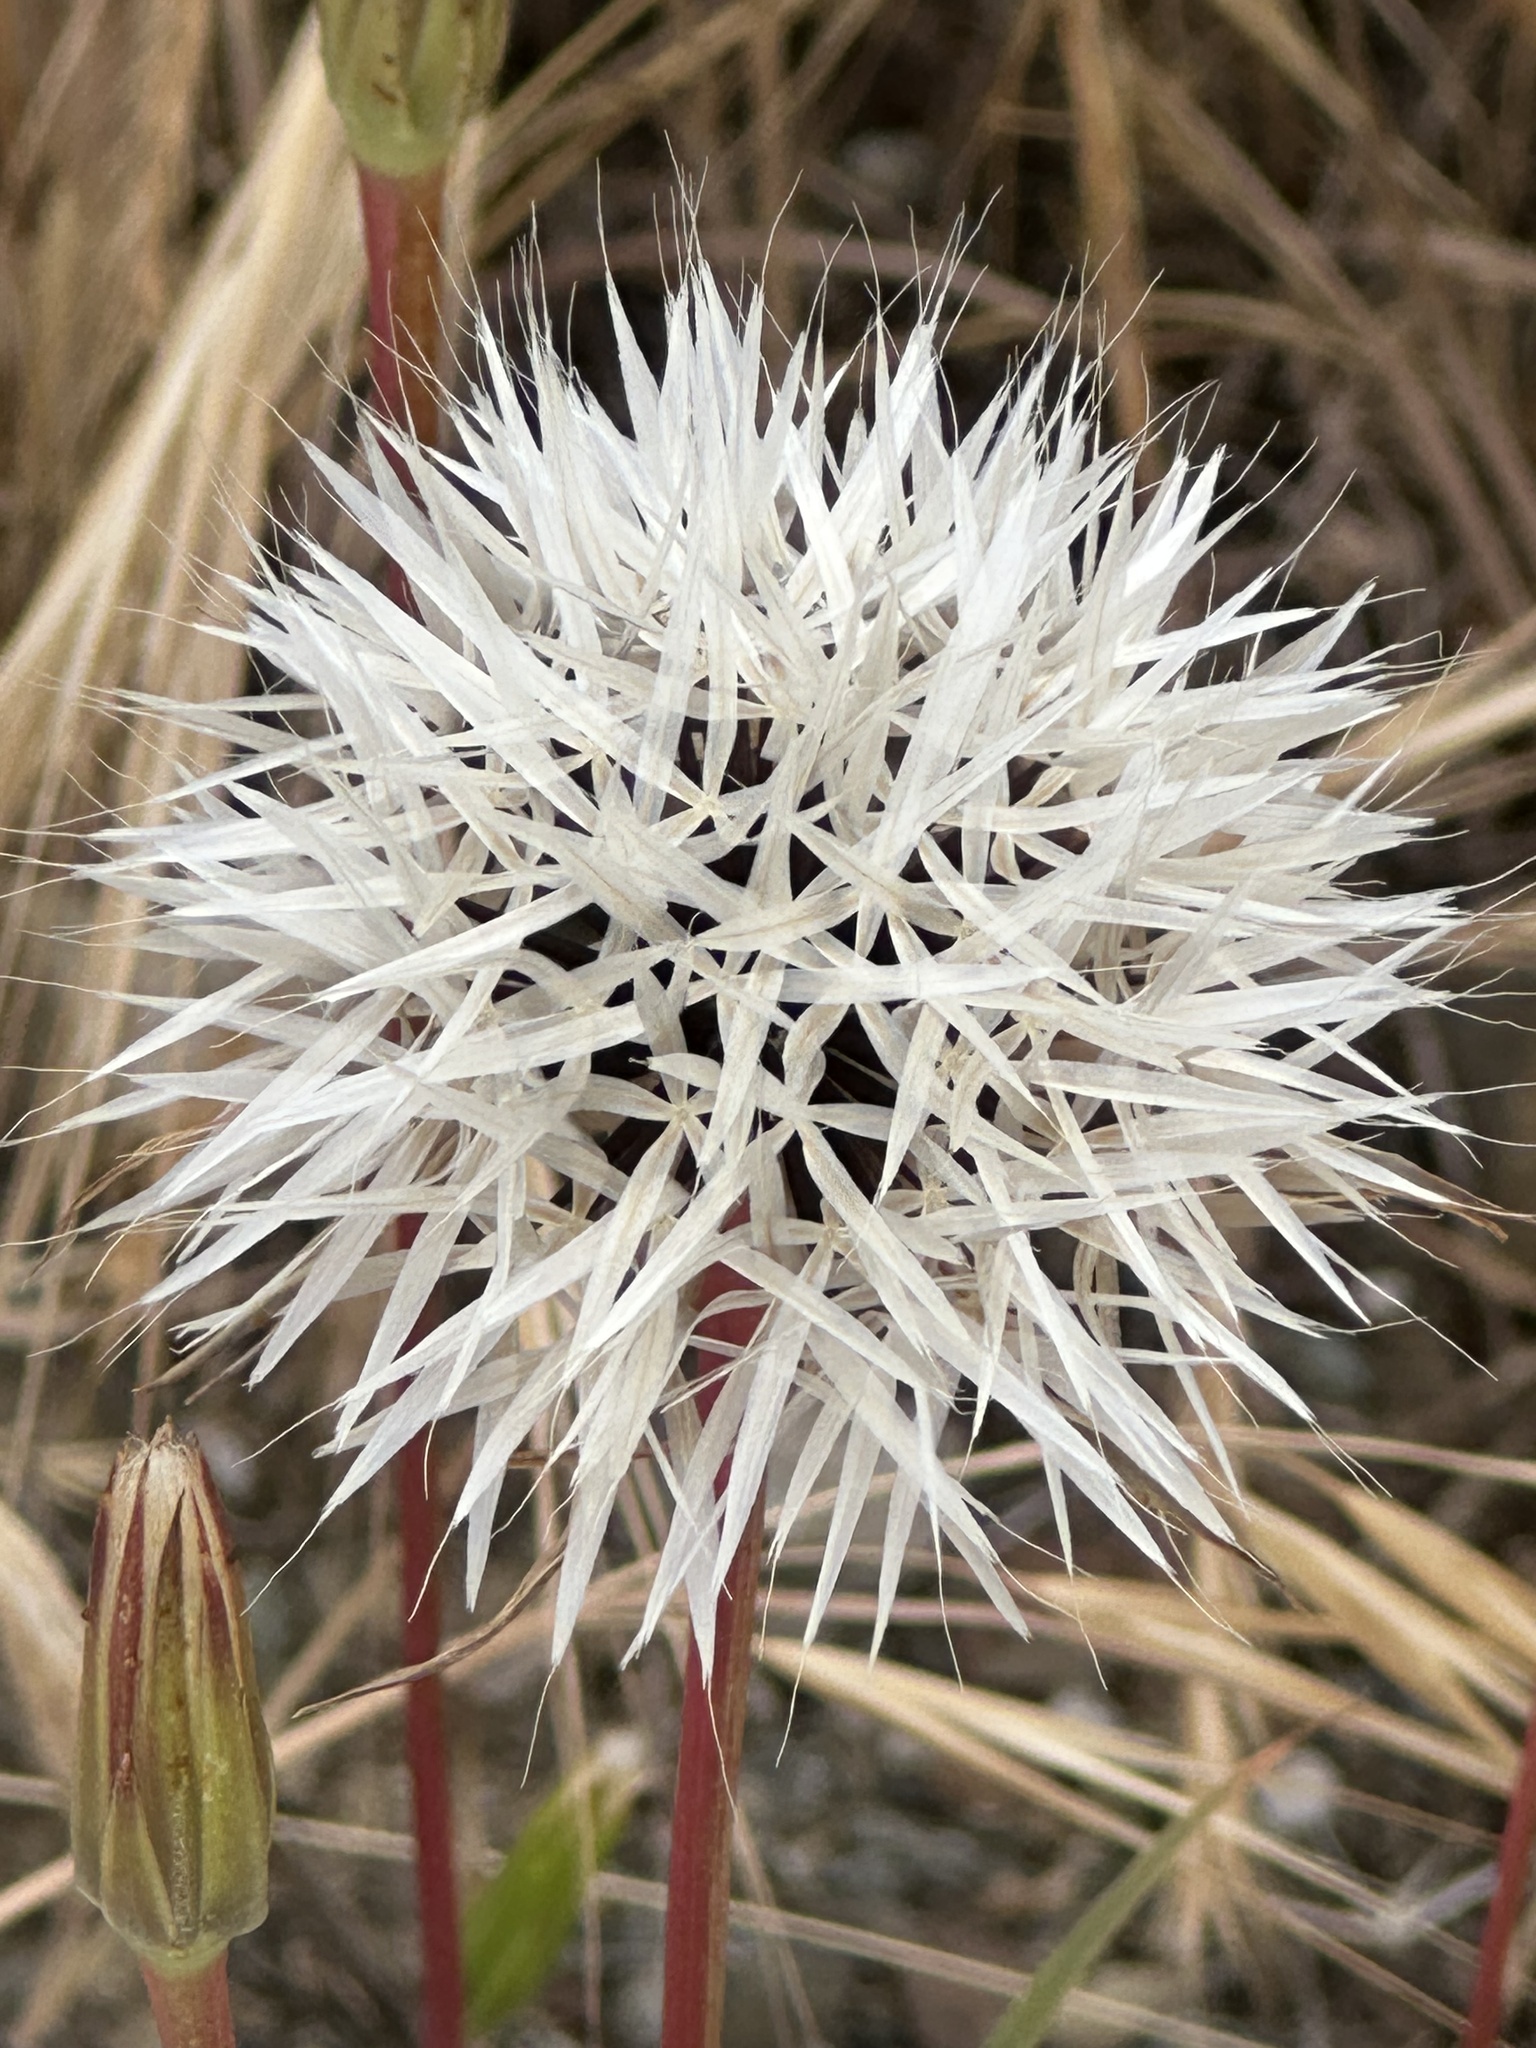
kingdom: Plantae
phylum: Tracheophyta
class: Magnoliopsida
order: Asterales
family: Asteraceae
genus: Microseris
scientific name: Microseris lindleyi
